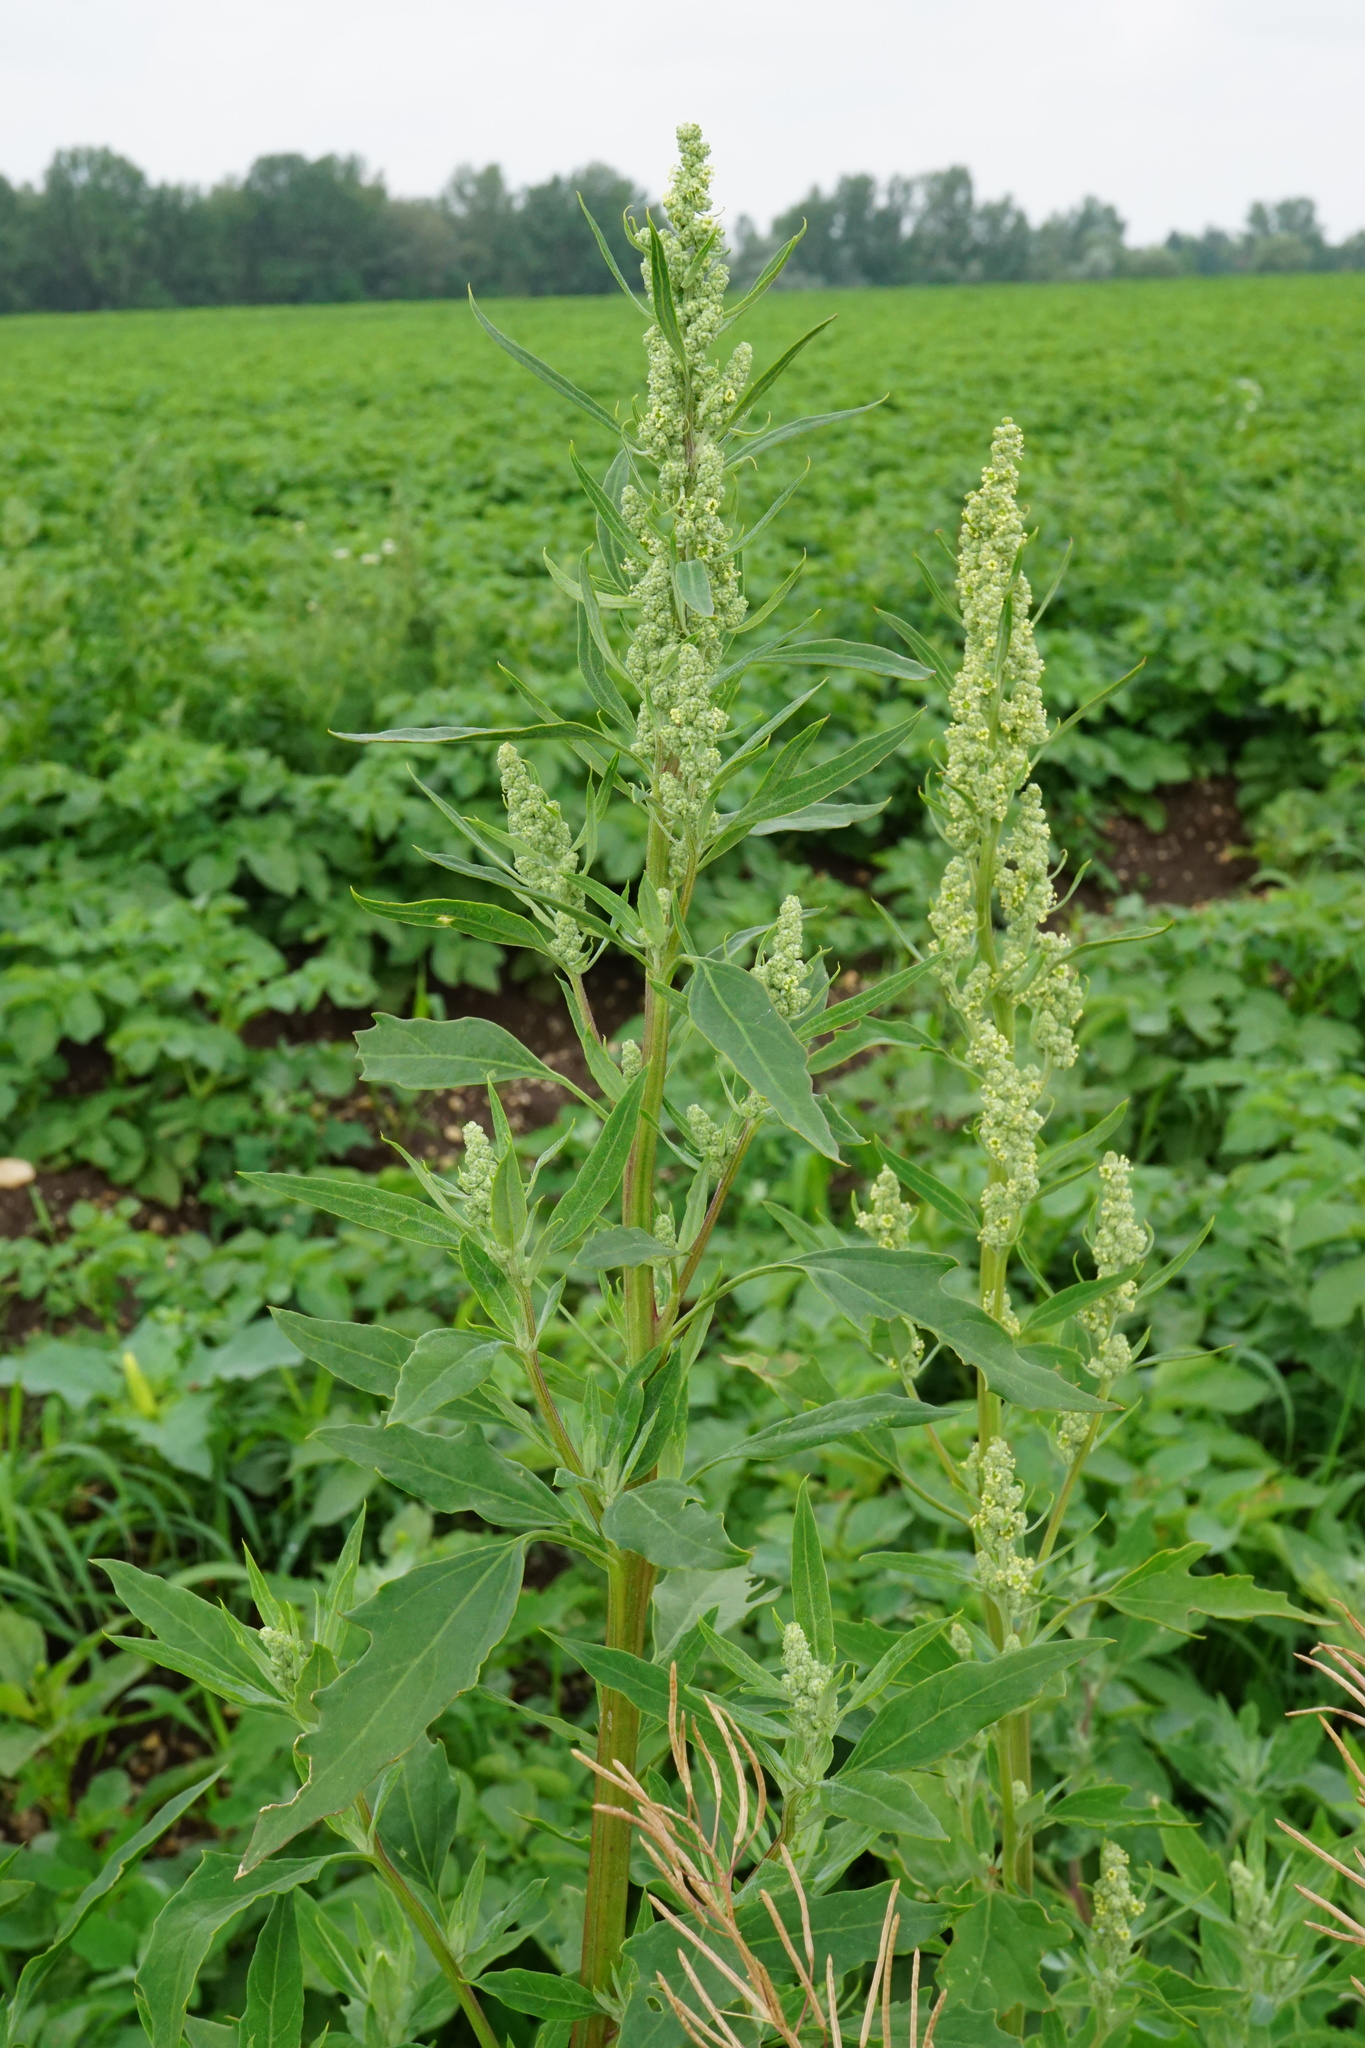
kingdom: Plantae
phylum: Tracheophyta
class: Magnoliopsida
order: Caryophyllales
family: Amaranthaceae
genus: Chenopodium
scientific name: Chenopodium album
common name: Fat-hen
